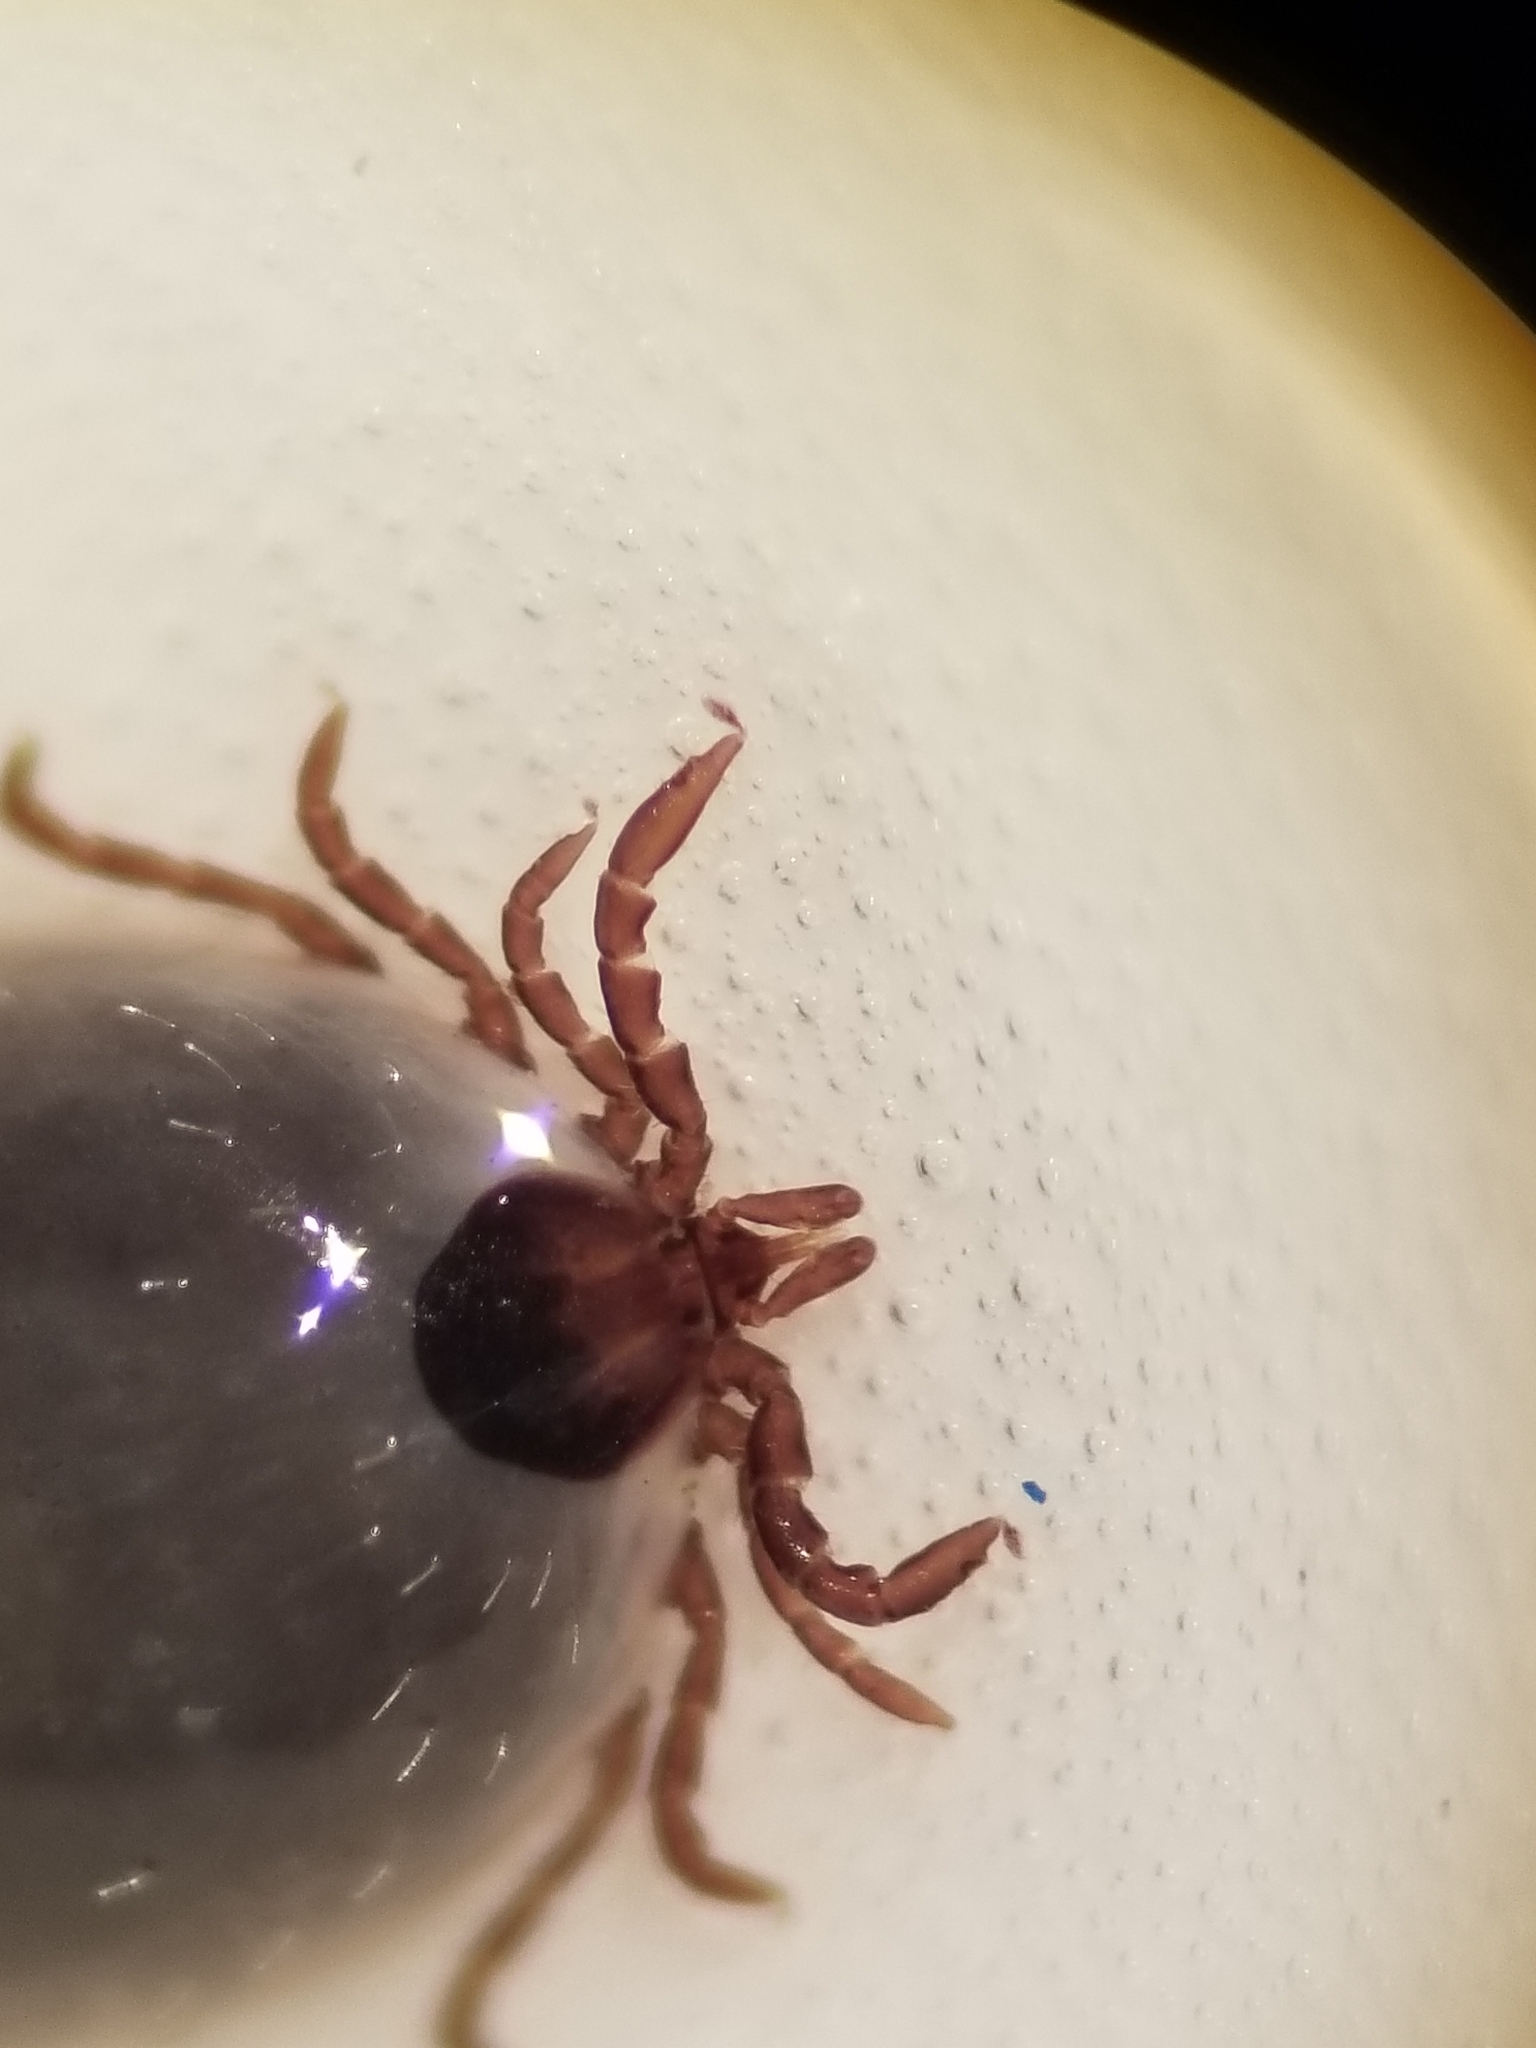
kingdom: Animalia
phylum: Arthropoda
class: Arachnida
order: Ixodida
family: Ixodidae
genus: Ixodes
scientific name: Ixodes pacificus
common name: California black-legged tick
